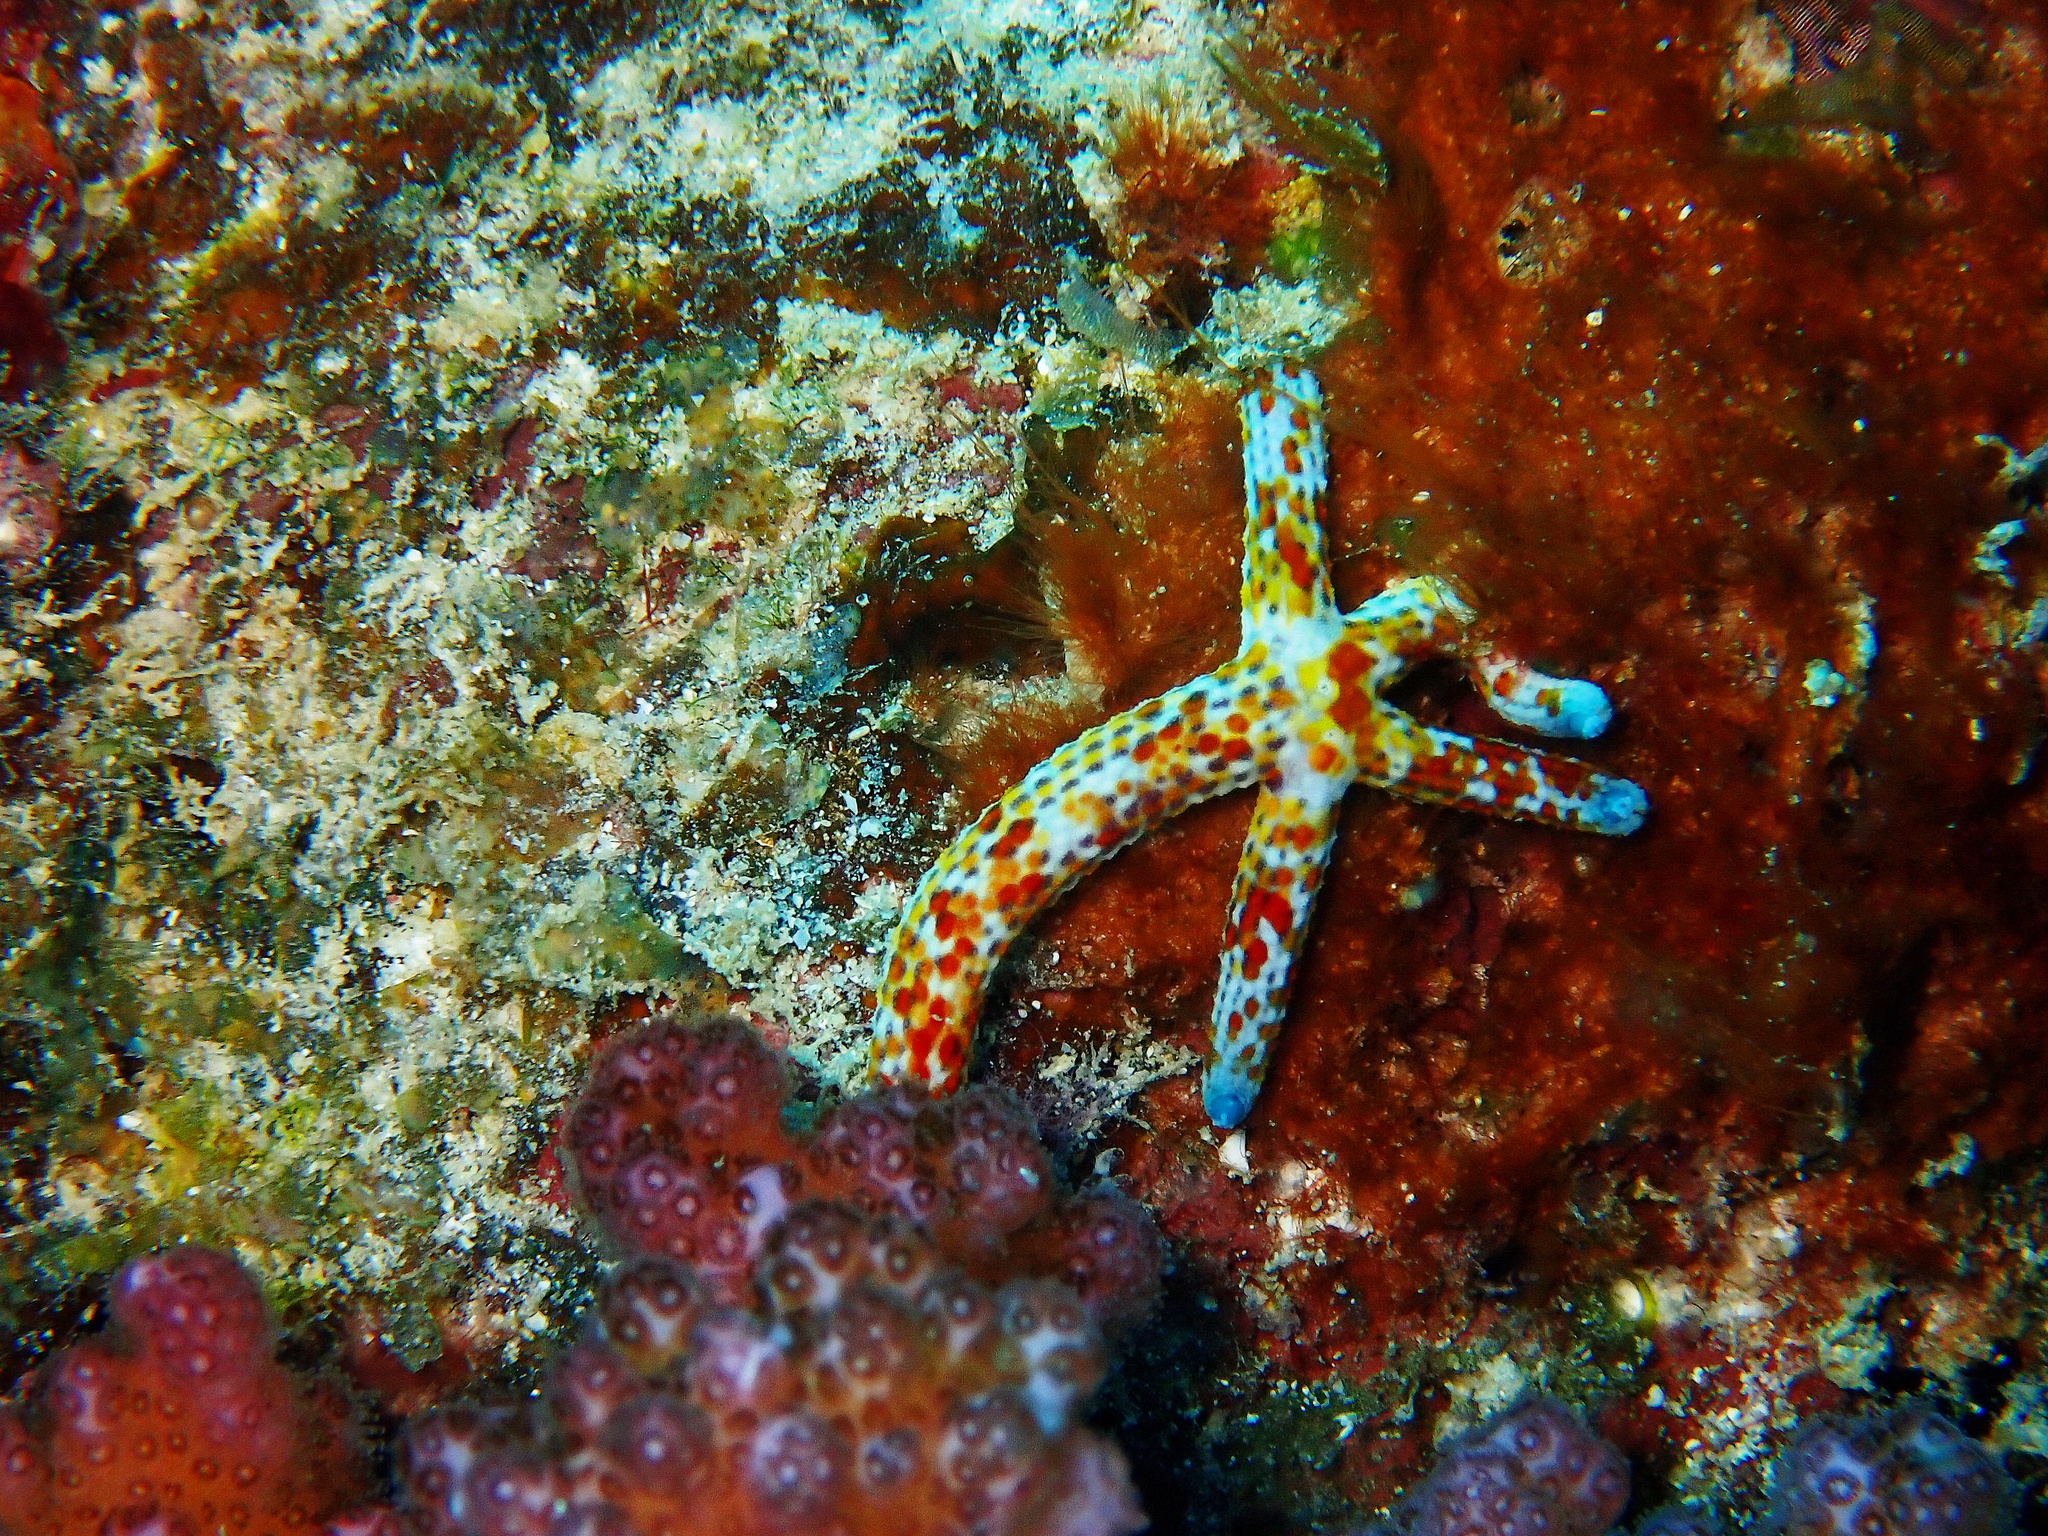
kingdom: Animalia
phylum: Echinodermata
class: Asteroidea
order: Valvatida
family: Ophidiasteridae
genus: Linckia
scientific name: Linckia multifora
